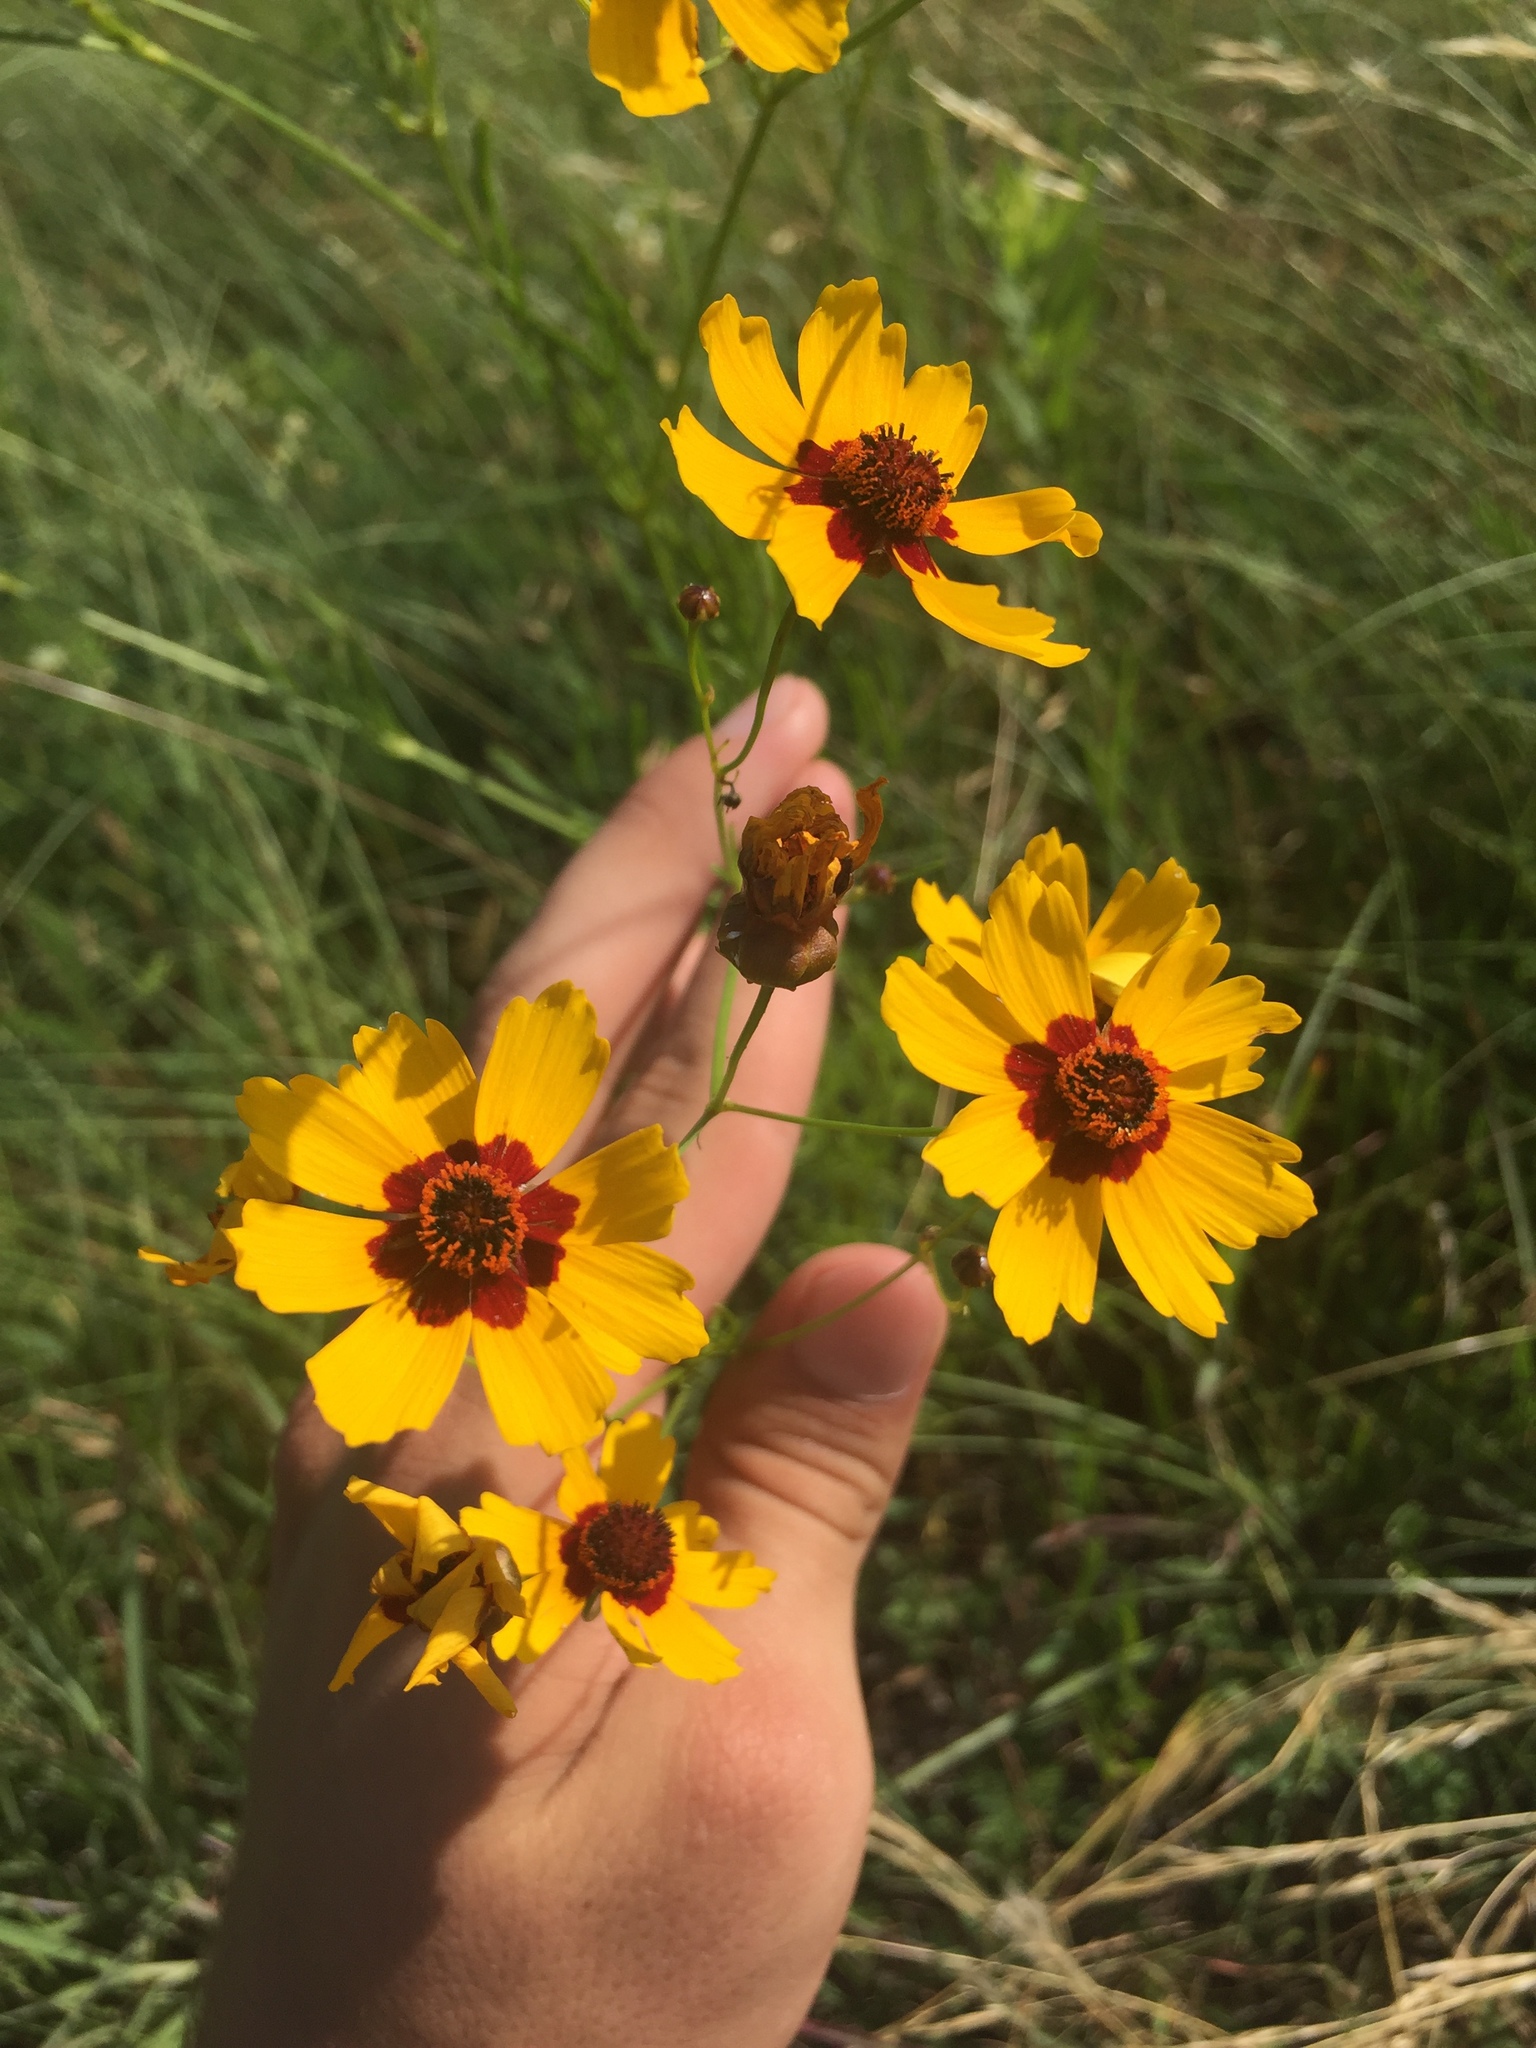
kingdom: Plantae
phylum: Tracheophyta
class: Magnoliopsida
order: Asterales
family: Asteraceae
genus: Coreopsis
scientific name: Coreopsis tinctoria
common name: Garden tickseed
